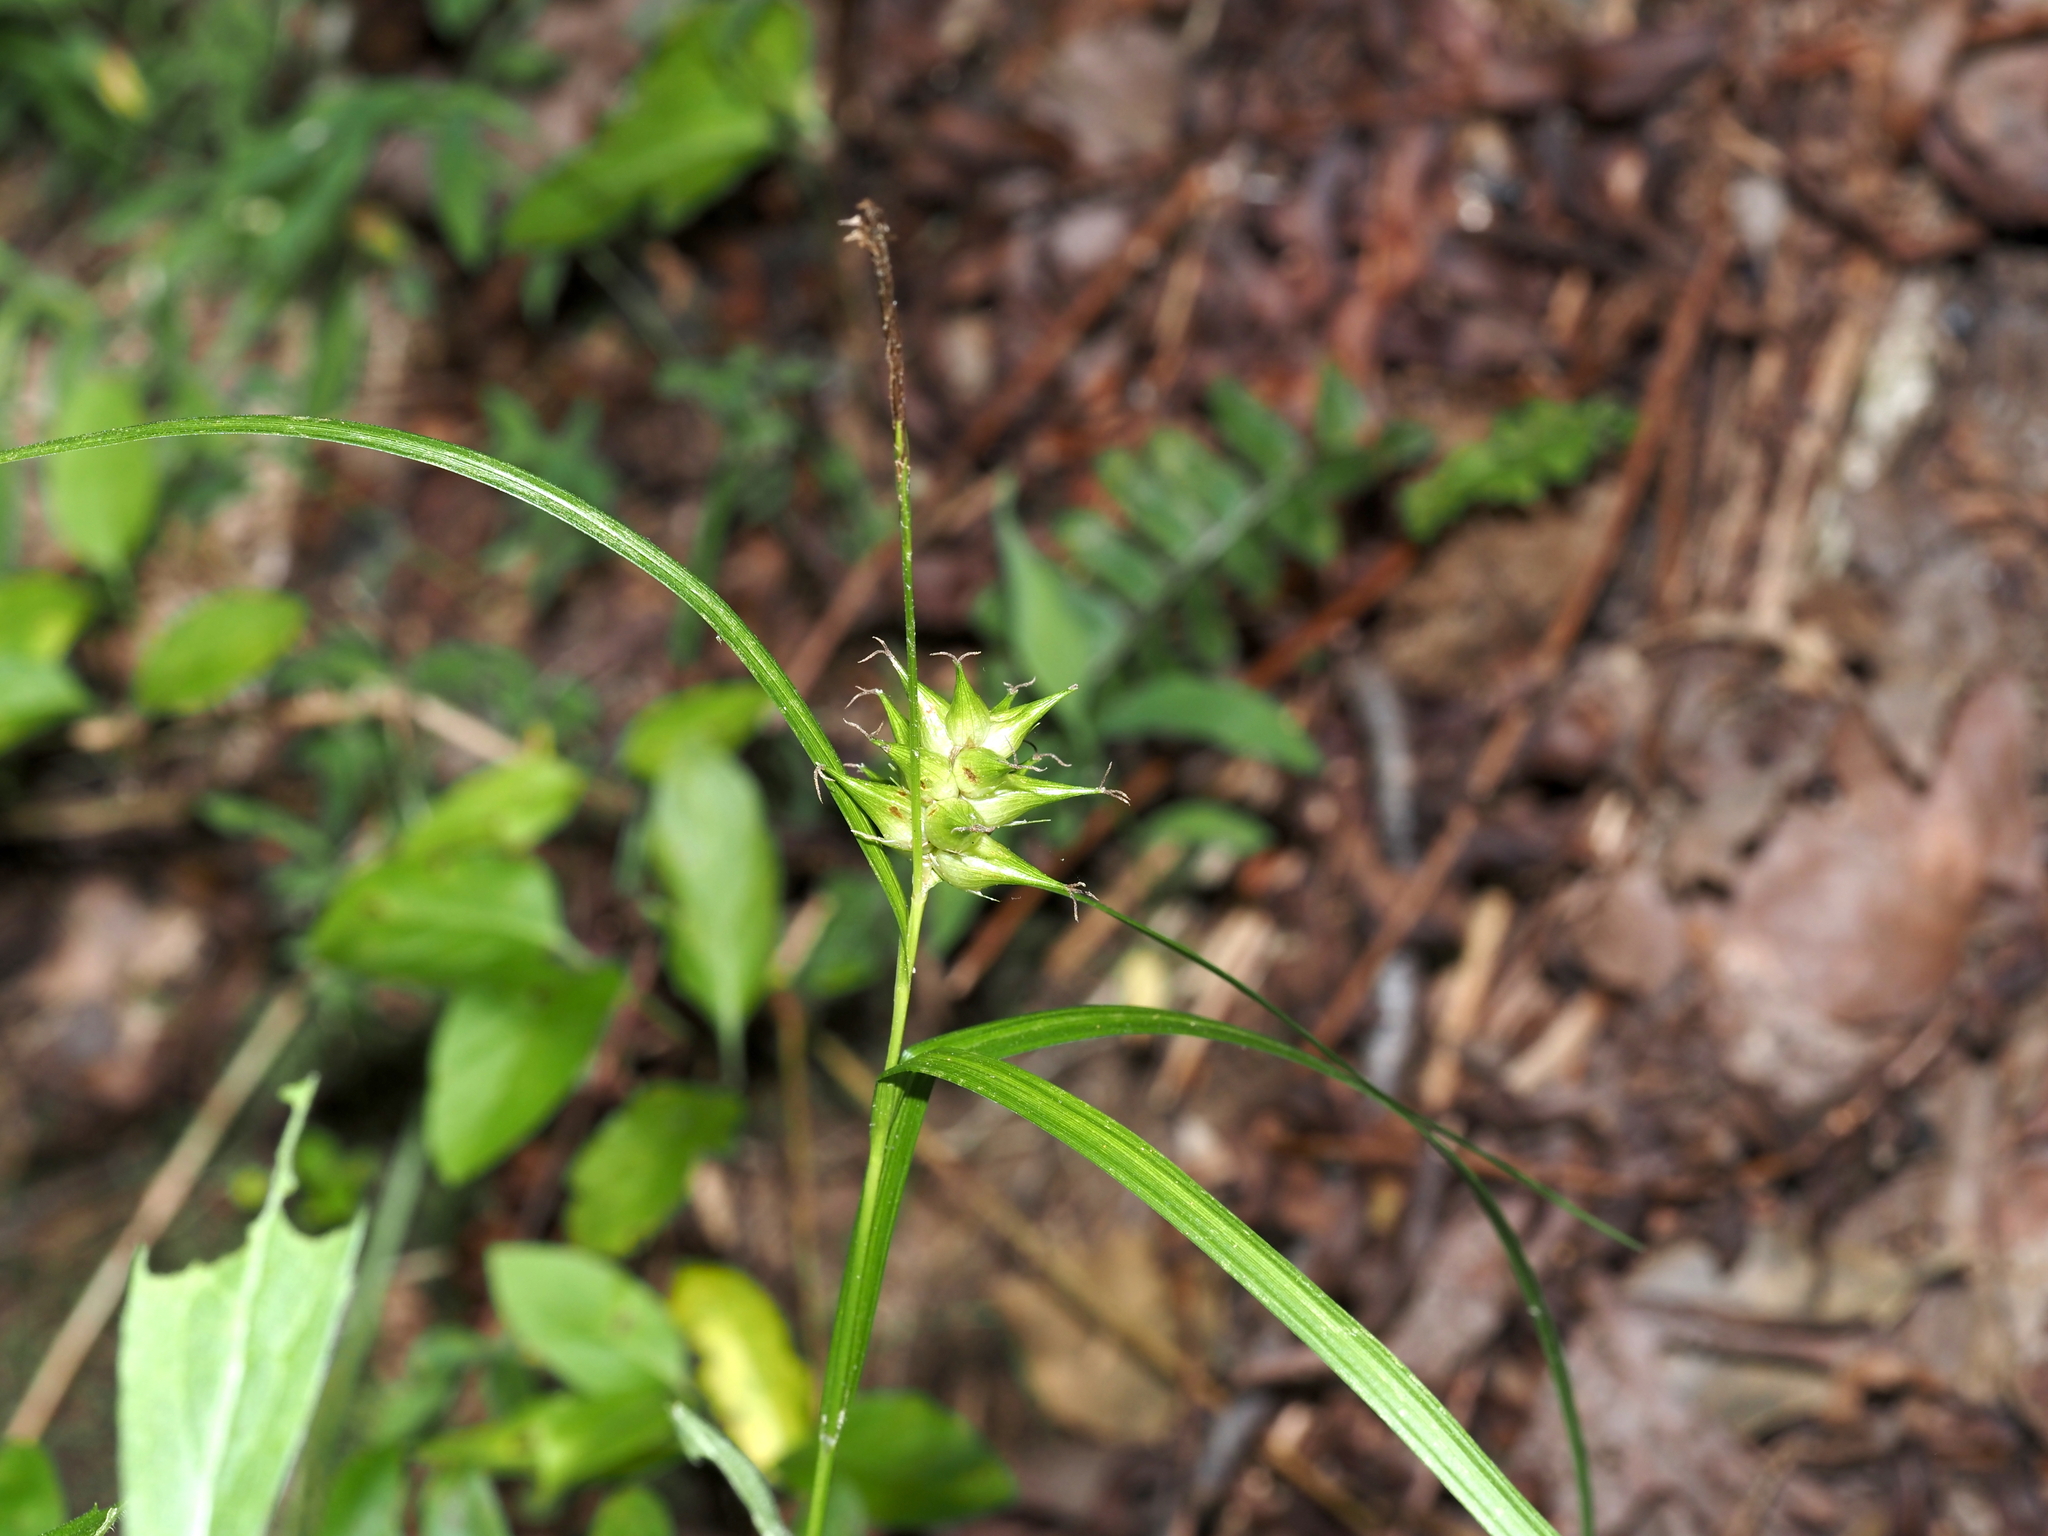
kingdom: Plantae
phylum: Tracheophyta
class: Liliopsida
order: Poales
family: Cyperaceae
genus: Carex
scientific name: Carex intumescens
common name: Greater bladder sedge
